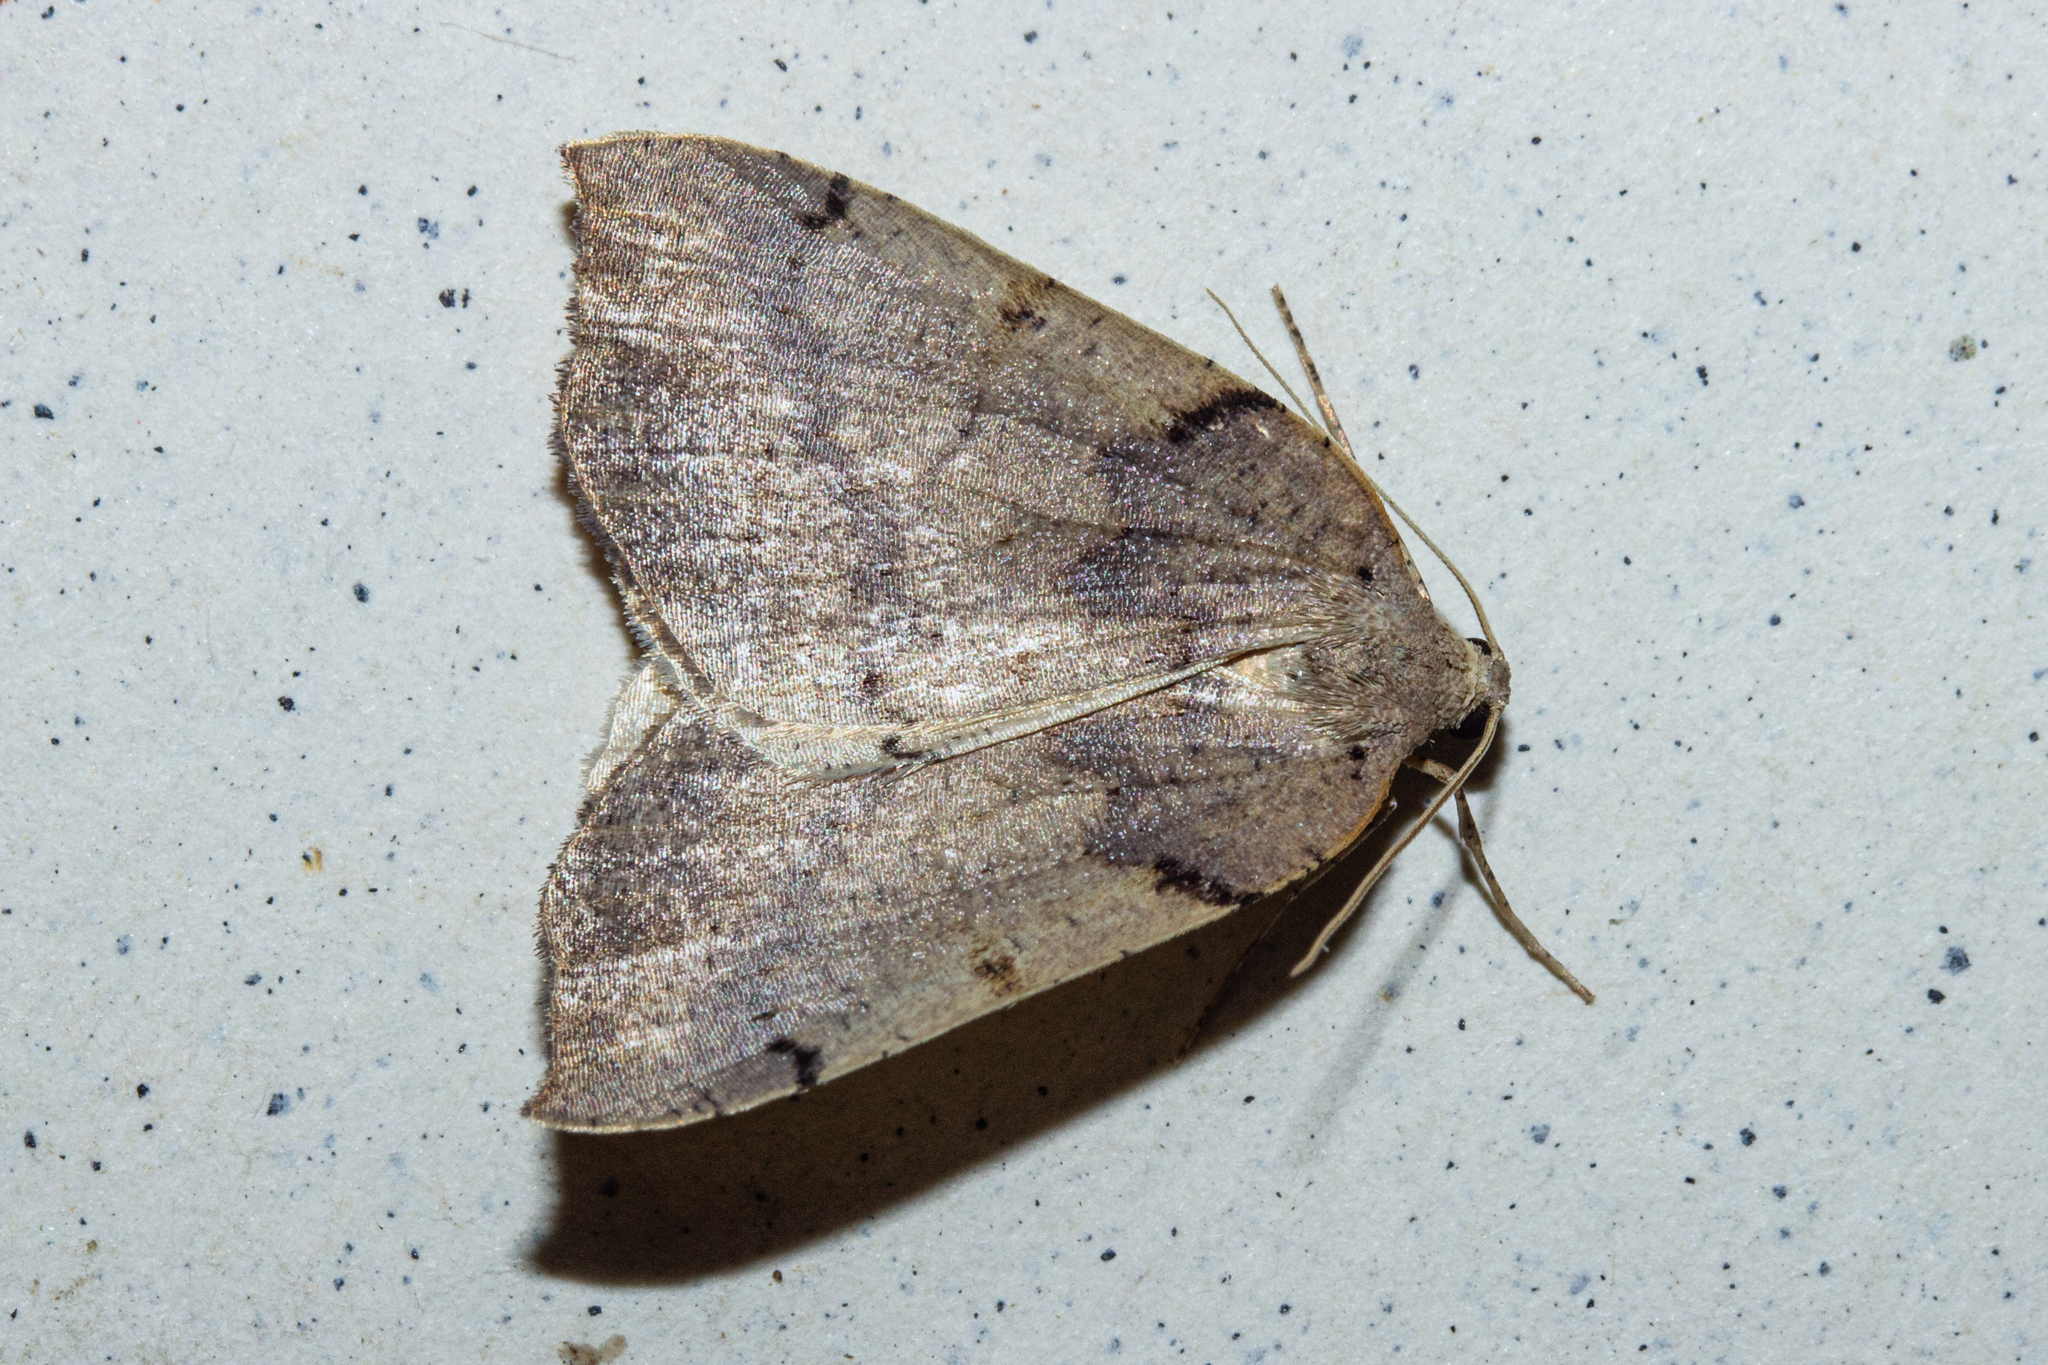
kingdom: Animalia
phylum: Arthropoda
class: Insecta
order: Lepidoptera
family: Geometridae
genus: Sestra
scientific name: Sestra humeraria
